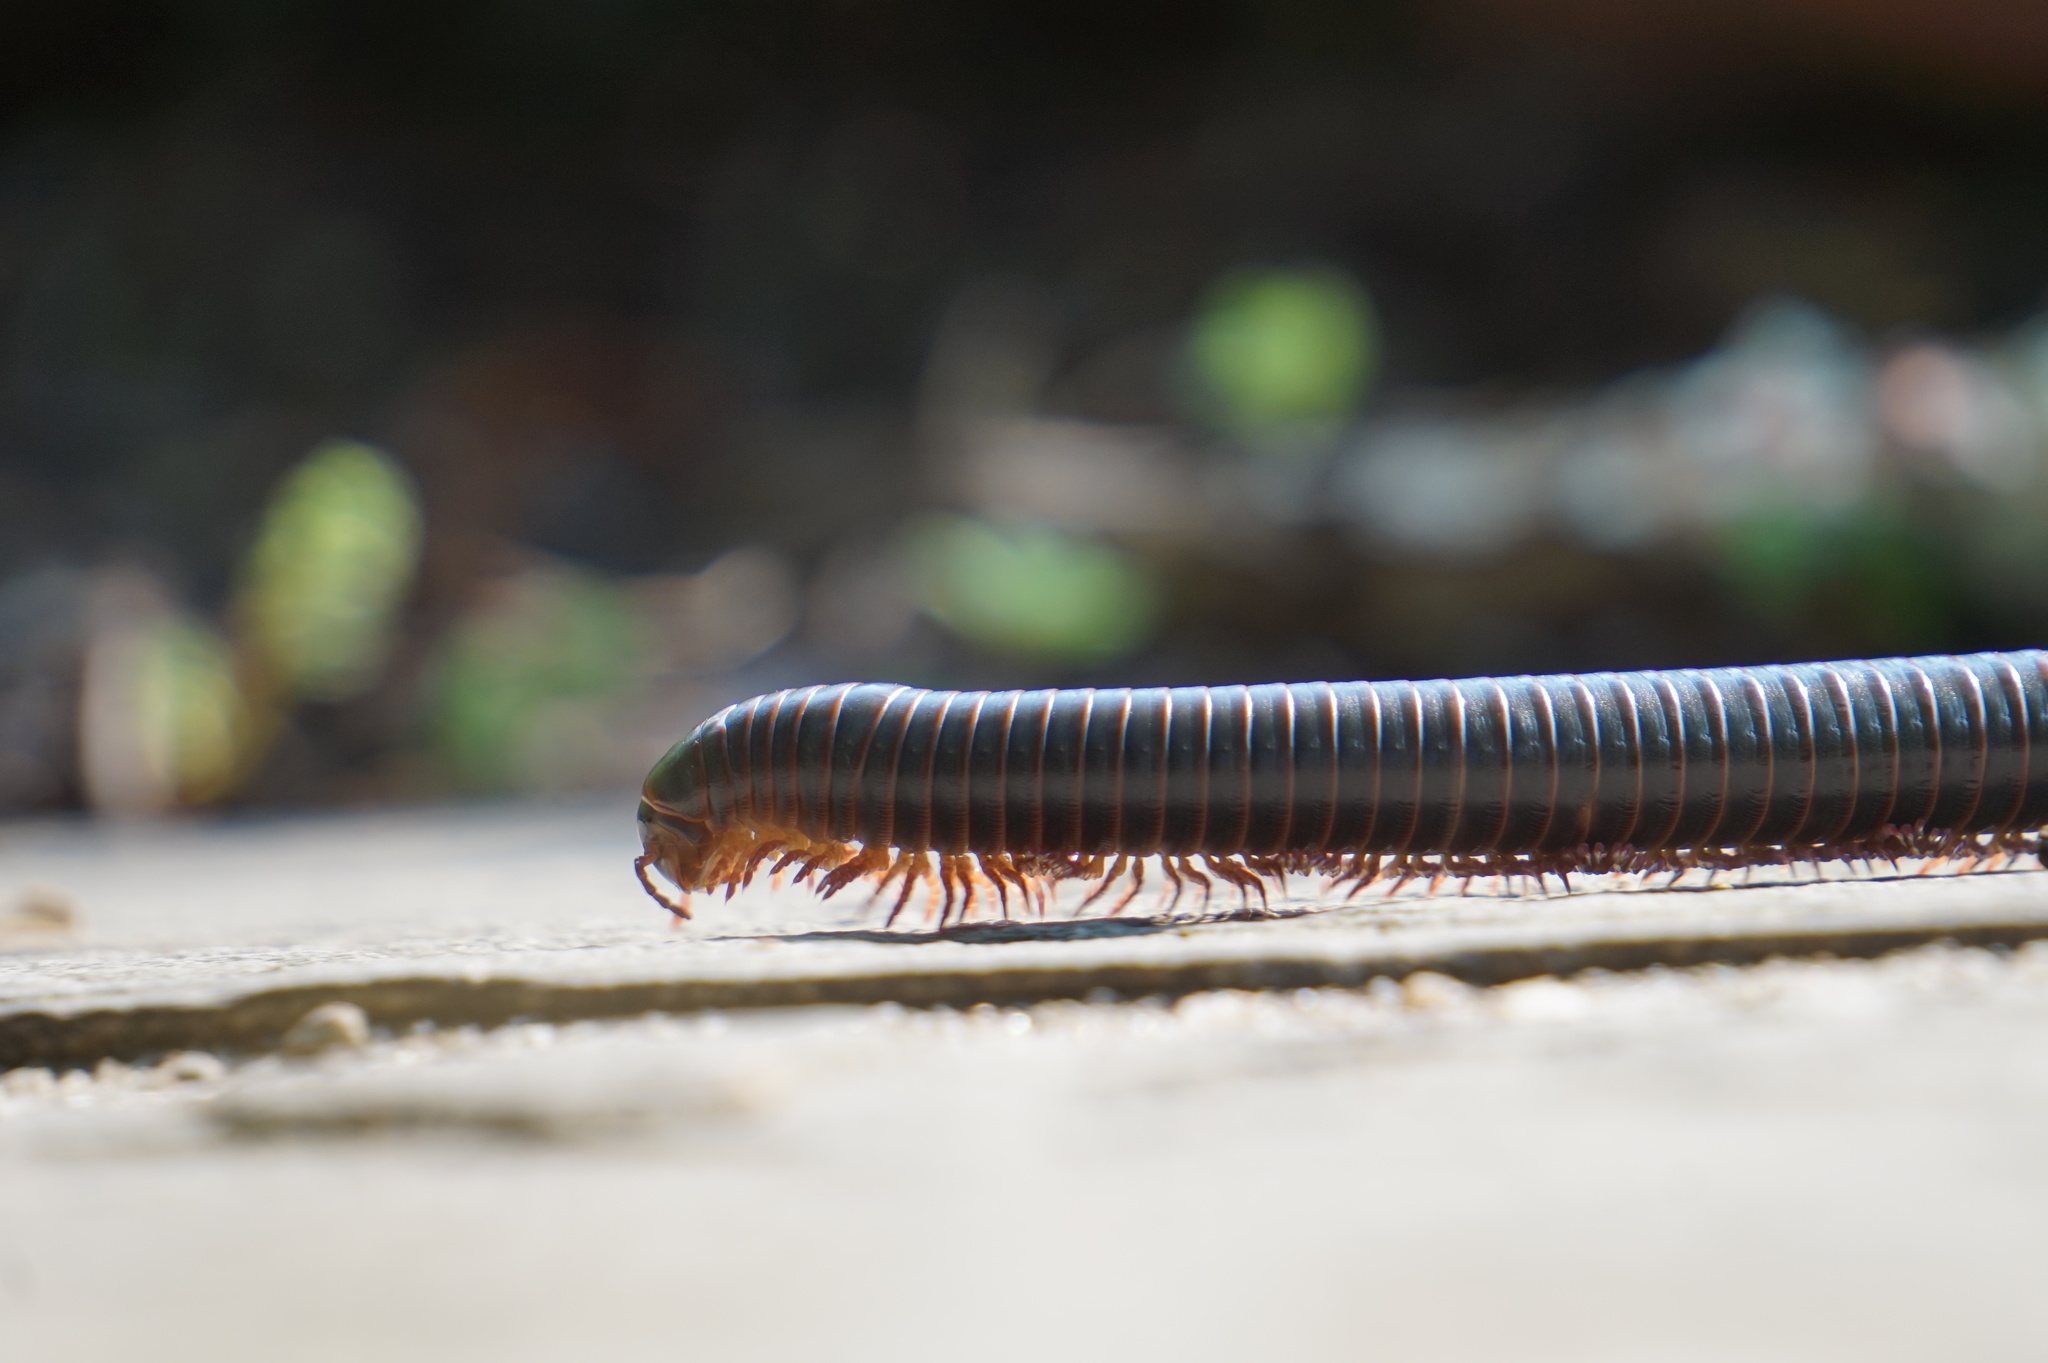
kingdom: Animalia
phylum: Arthropoda
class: Diplopoda
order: Spirobolida
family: Spirobolidae
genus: Narceus
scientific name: Narceus
